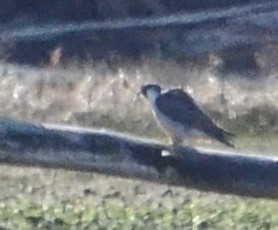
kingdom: Animalia
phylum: Chordata
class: Aves
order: Falconiformes
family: Falconidae
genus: Falco
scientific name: Falco peregrinus
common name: Peregrine falcon
